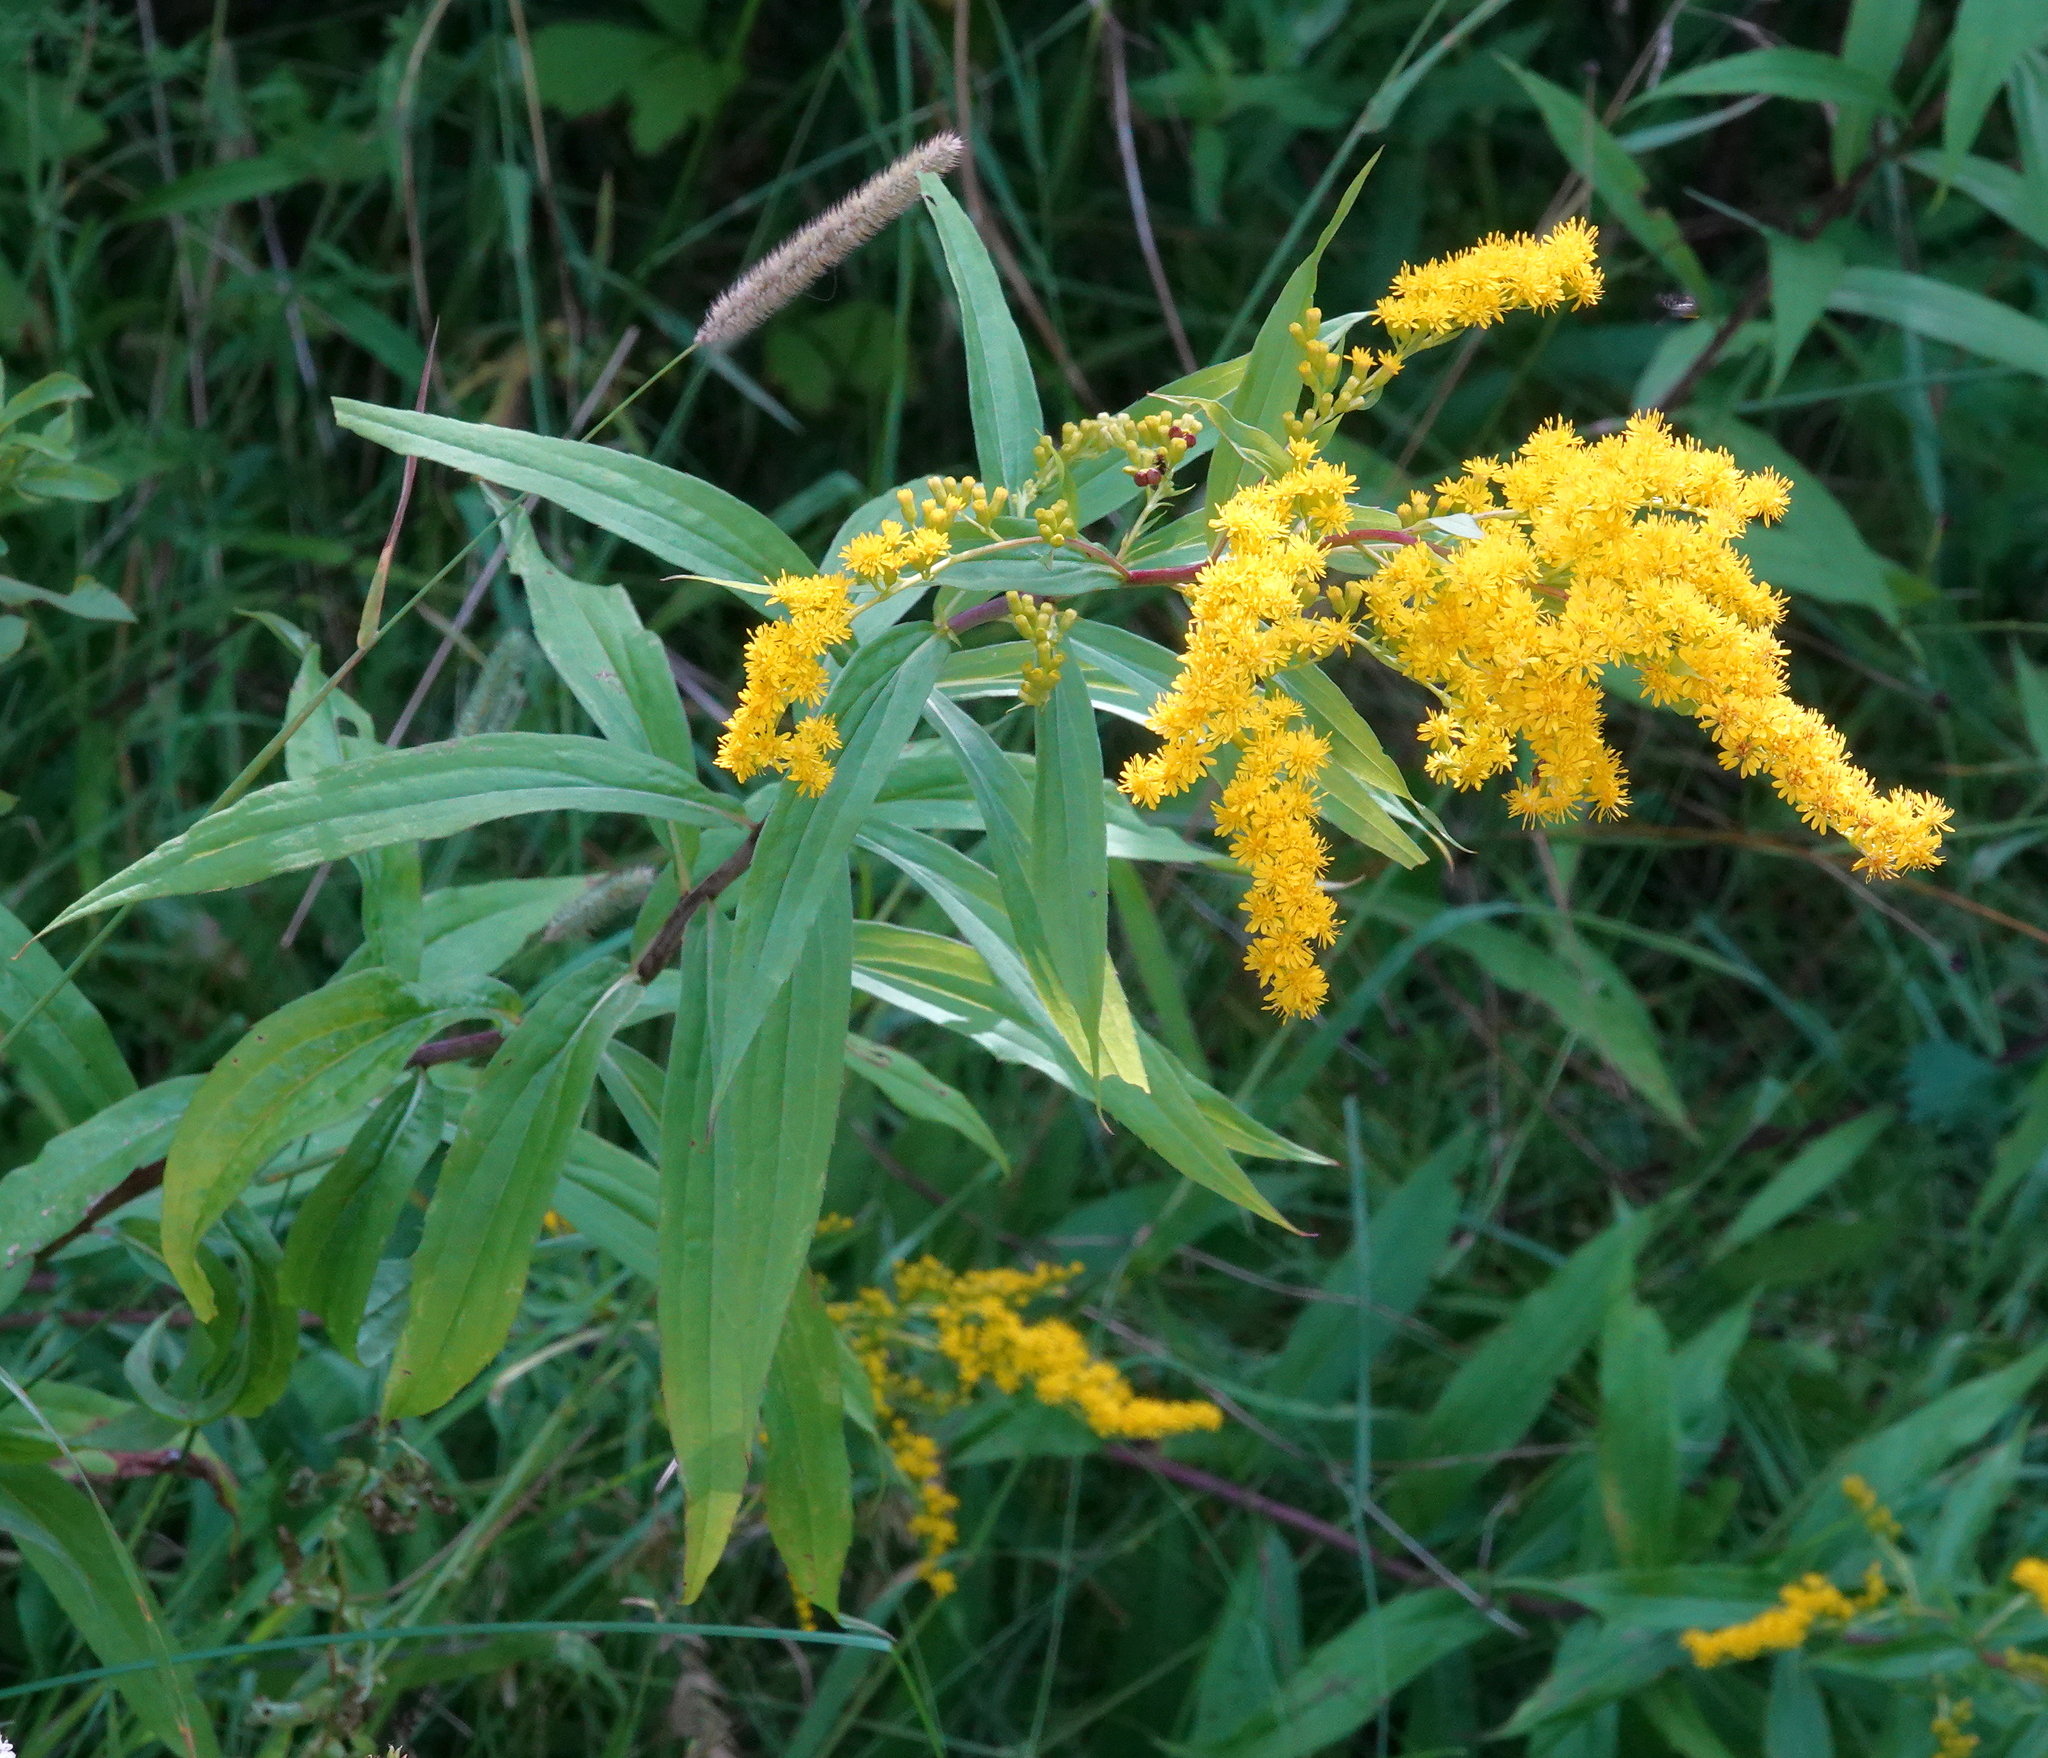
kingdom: Plantae
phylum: Tracheophyta
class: Magnoliopsida
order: Asterales
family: Asteraceae
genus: Solidago
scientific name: Solidago gigantea
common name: Giant goldenrod
